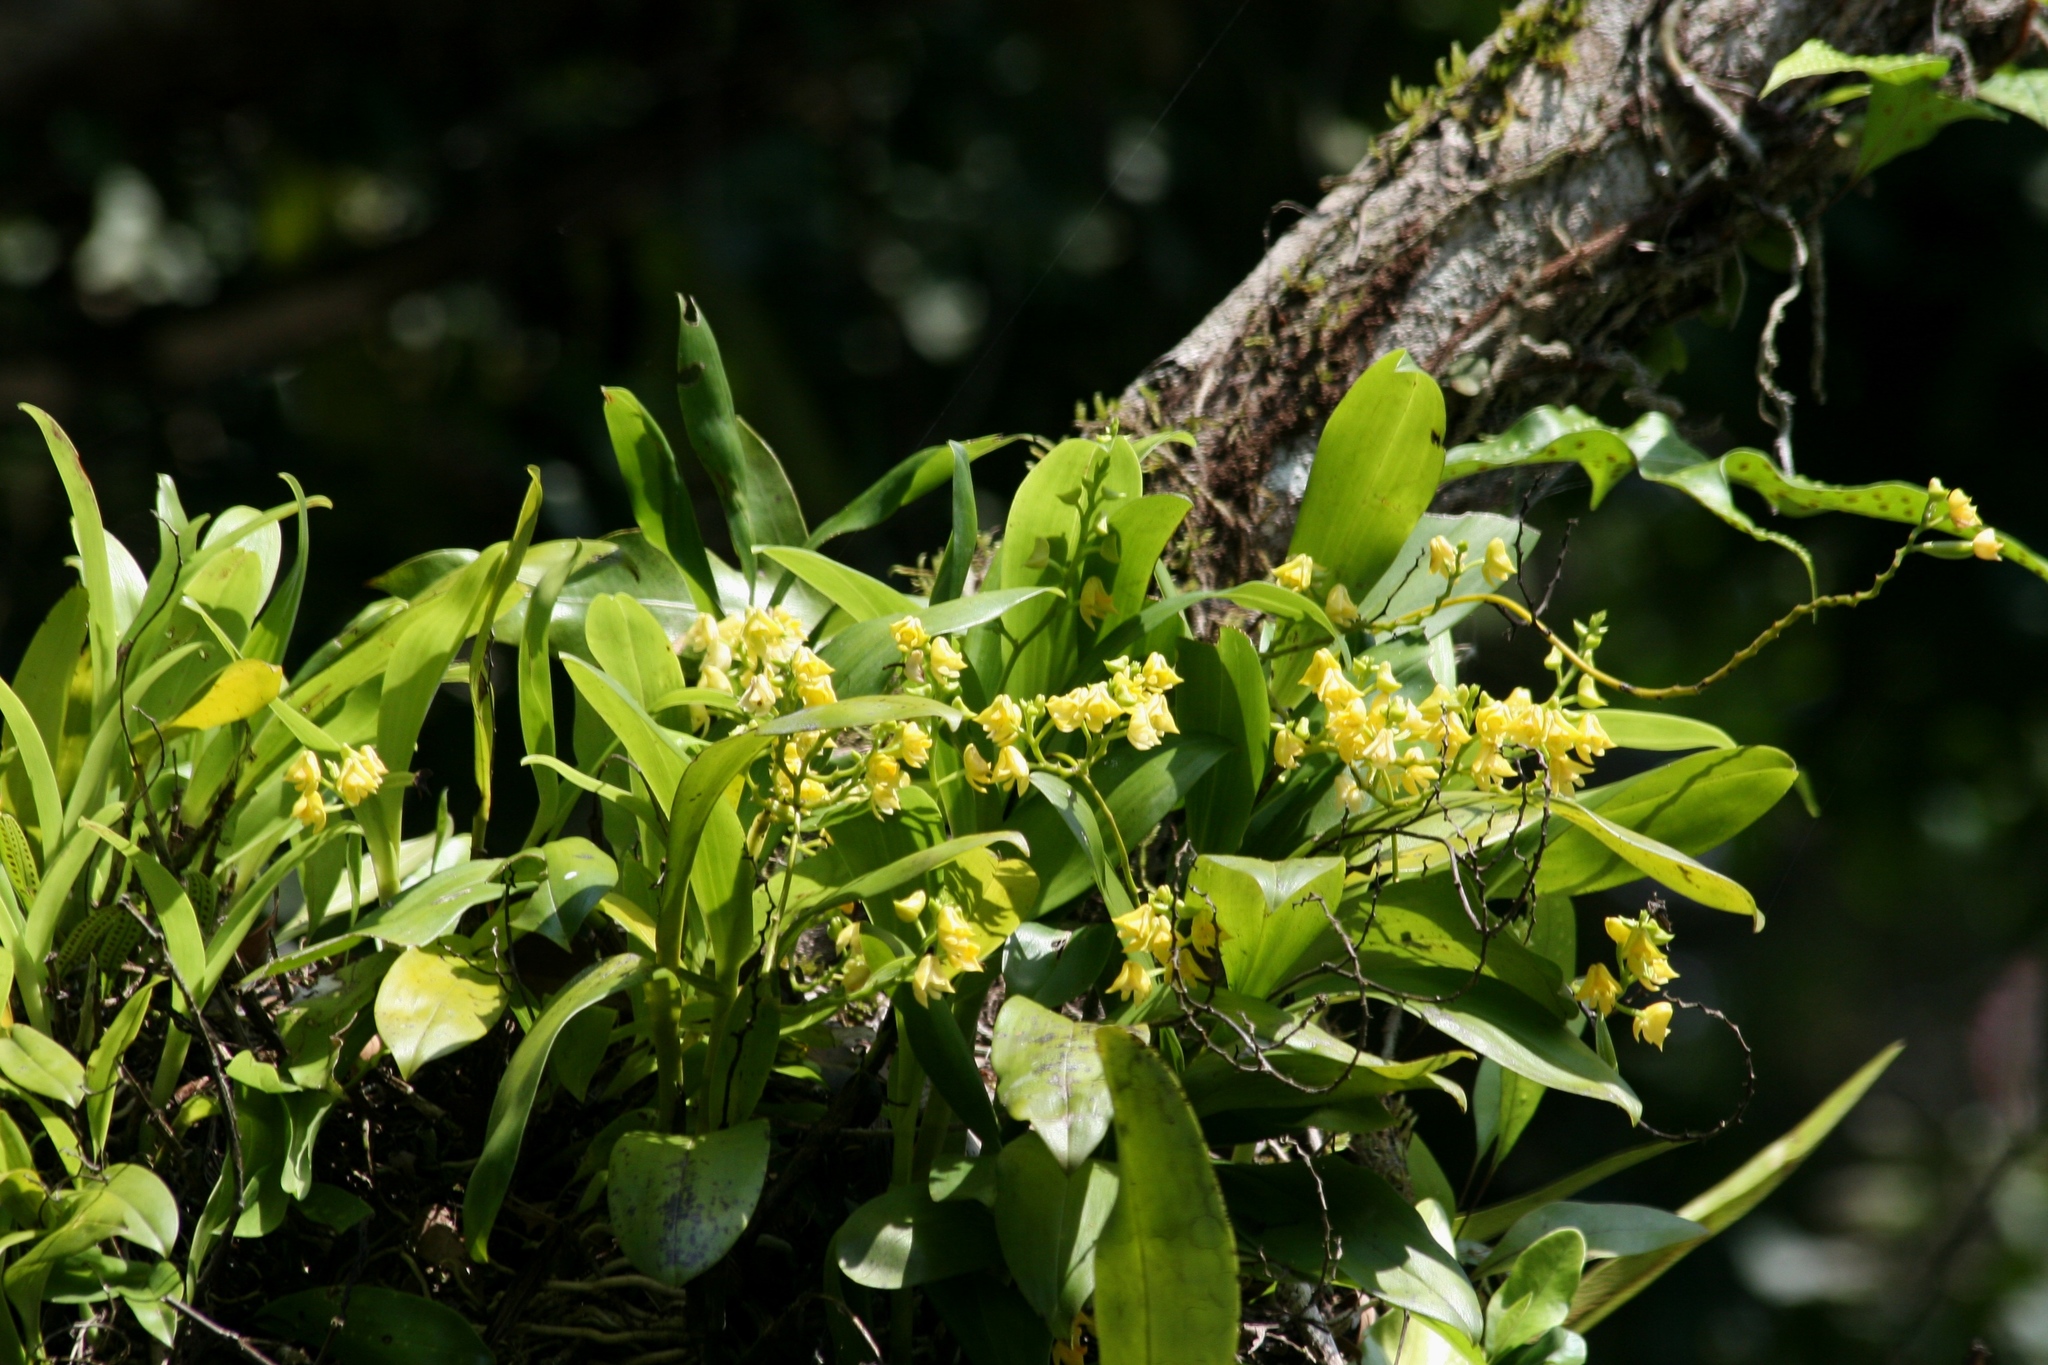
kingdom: Plantae
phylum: Tracheophyta
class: Liliopsida
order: Asparagales
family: Orchidaceae
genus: Polystachya
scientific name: Polystachya odorata
